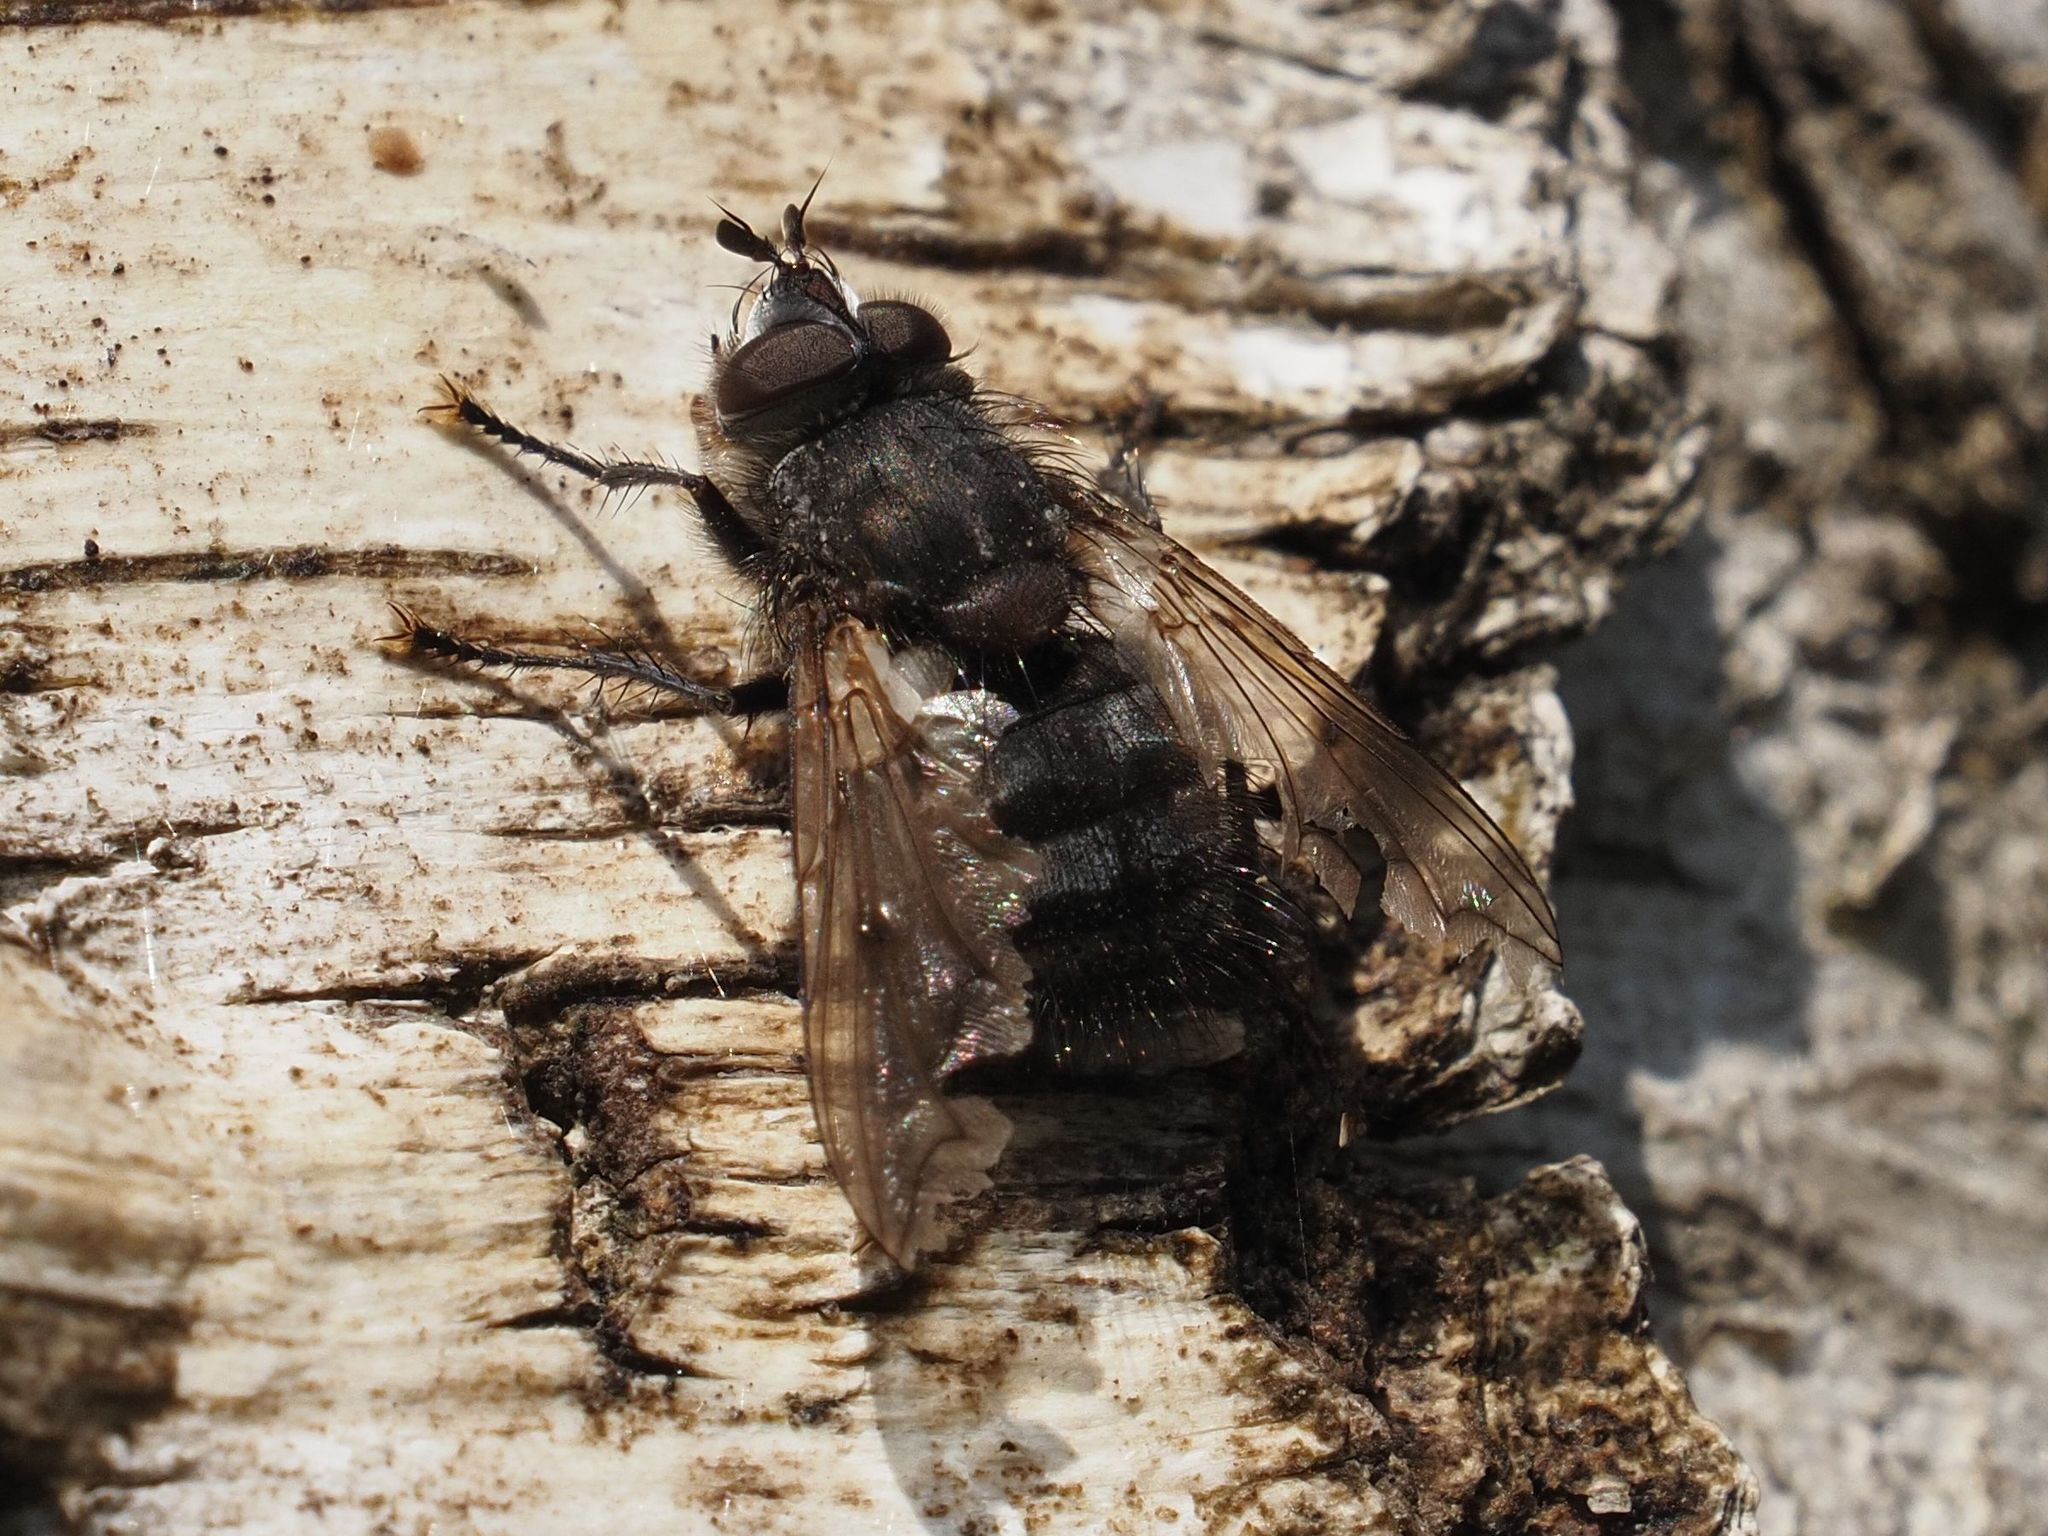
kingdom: Animalia
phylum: Arthropoda
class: Insecta
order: Diptera
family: Tachinidae
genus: Panzeria
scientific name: Panzeria puparum
